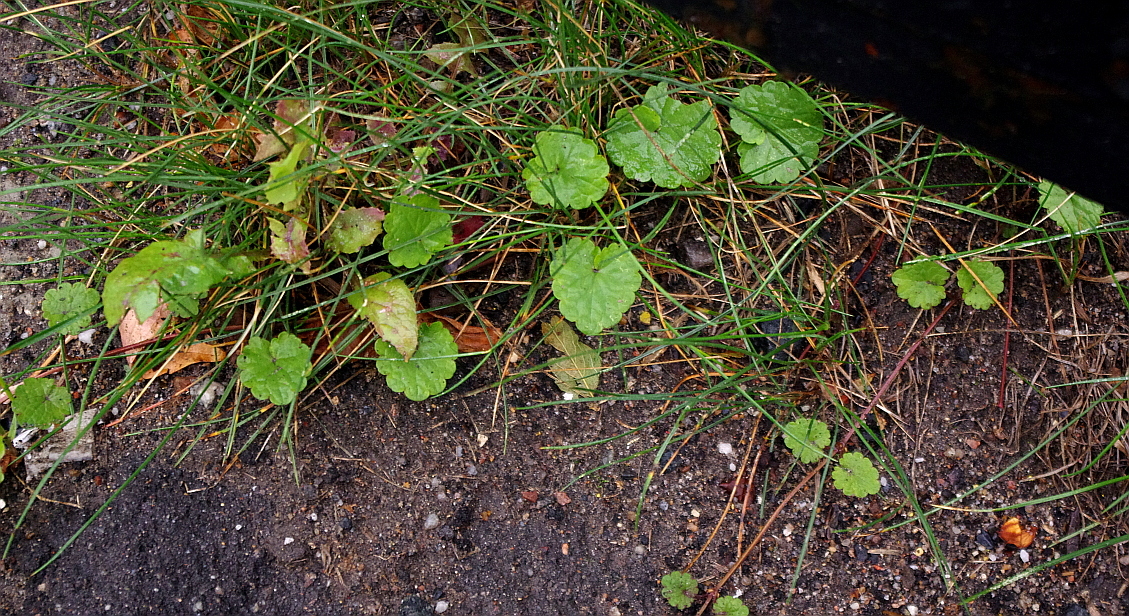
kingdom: Plantae
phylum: Tracheophyta
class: Magnoliopsida
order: Lamiales
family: Lamiaceae
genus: Glechoma
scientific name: Glechoma hederacea
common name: Ground ivy
